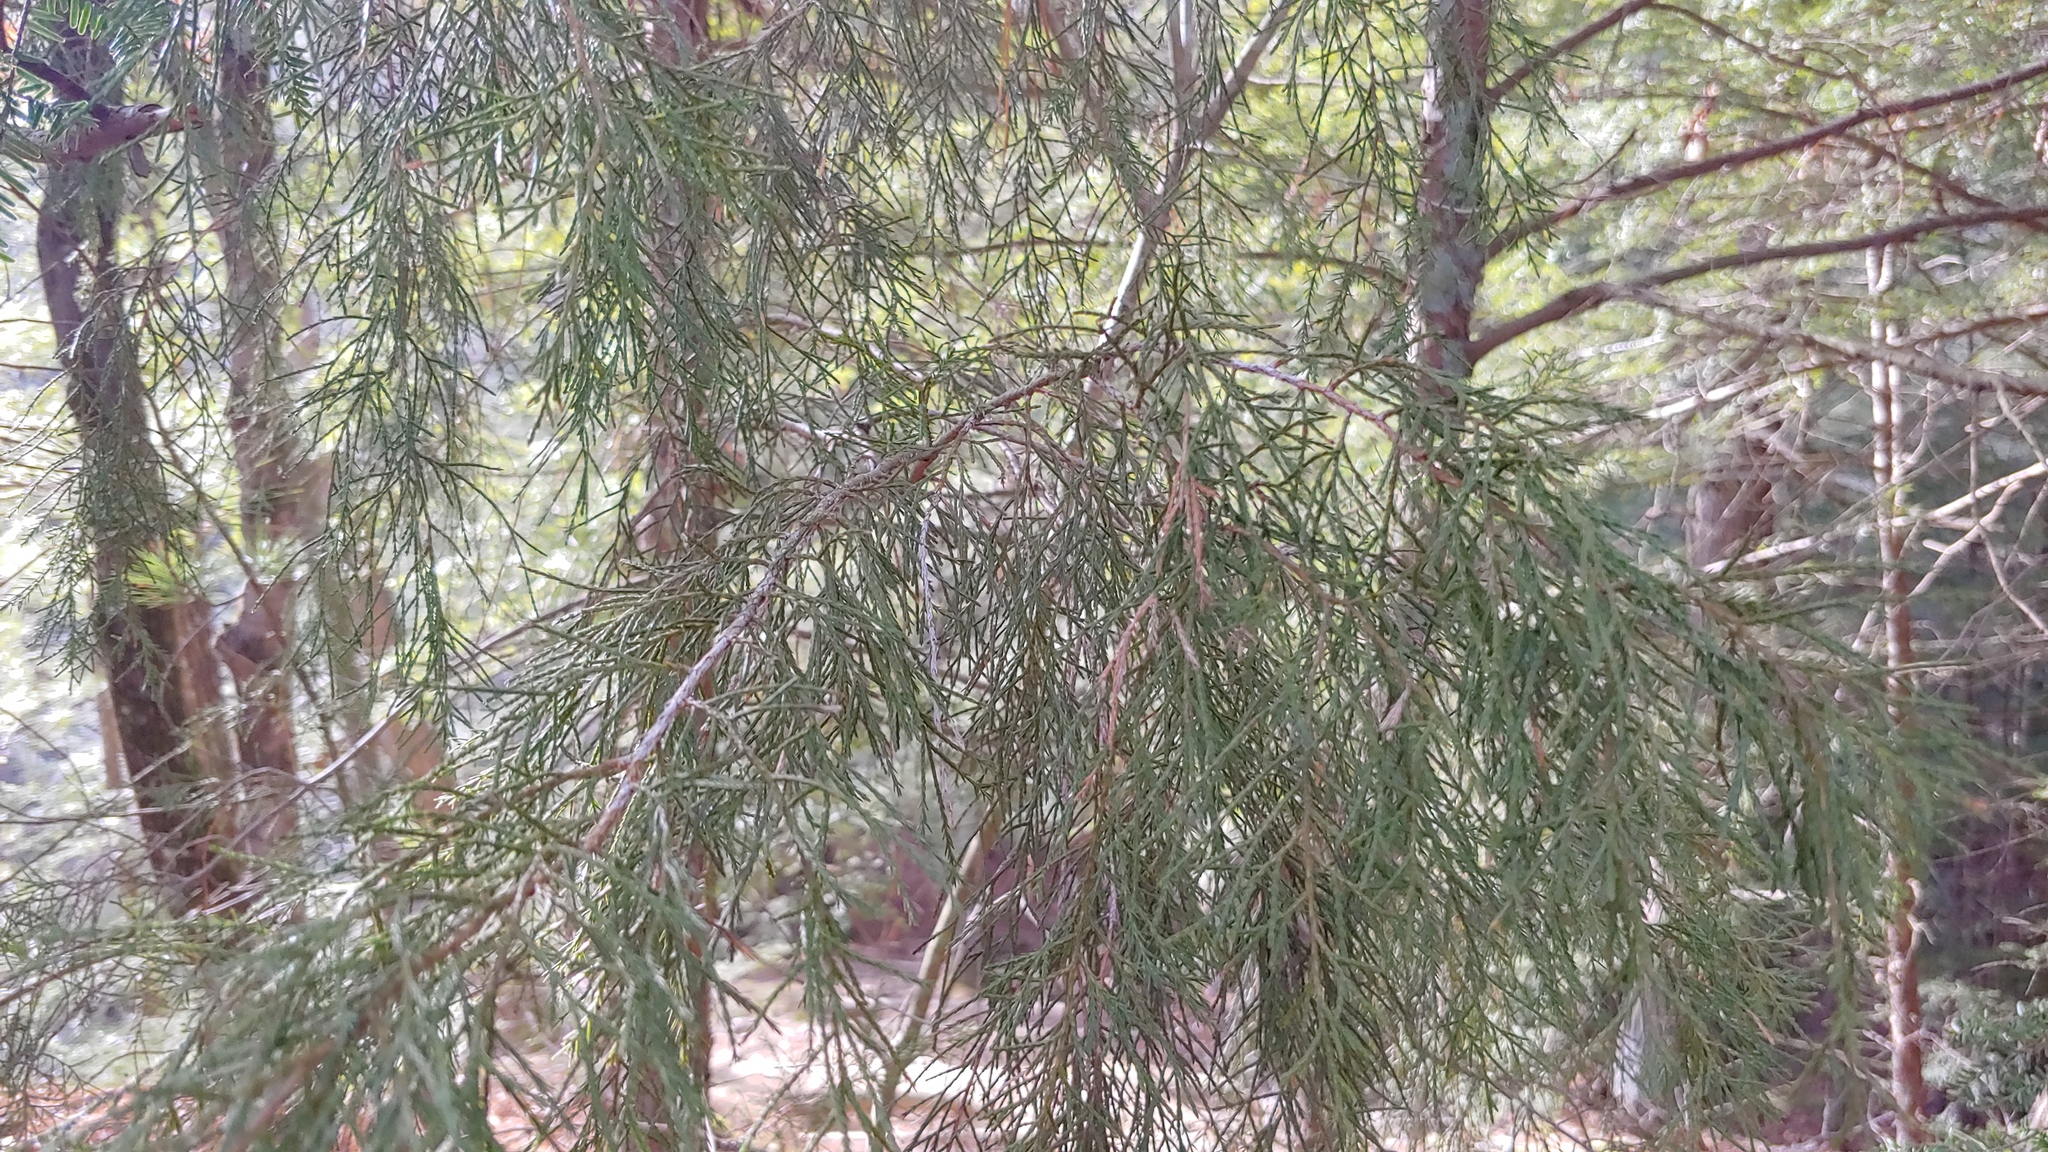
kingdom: Plantae
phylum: Tracheophyta
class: Pinopsida
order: Pinales
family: Cupressaceae
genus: Juniperus
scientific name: Juniperus virginiana
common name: Red juniper
